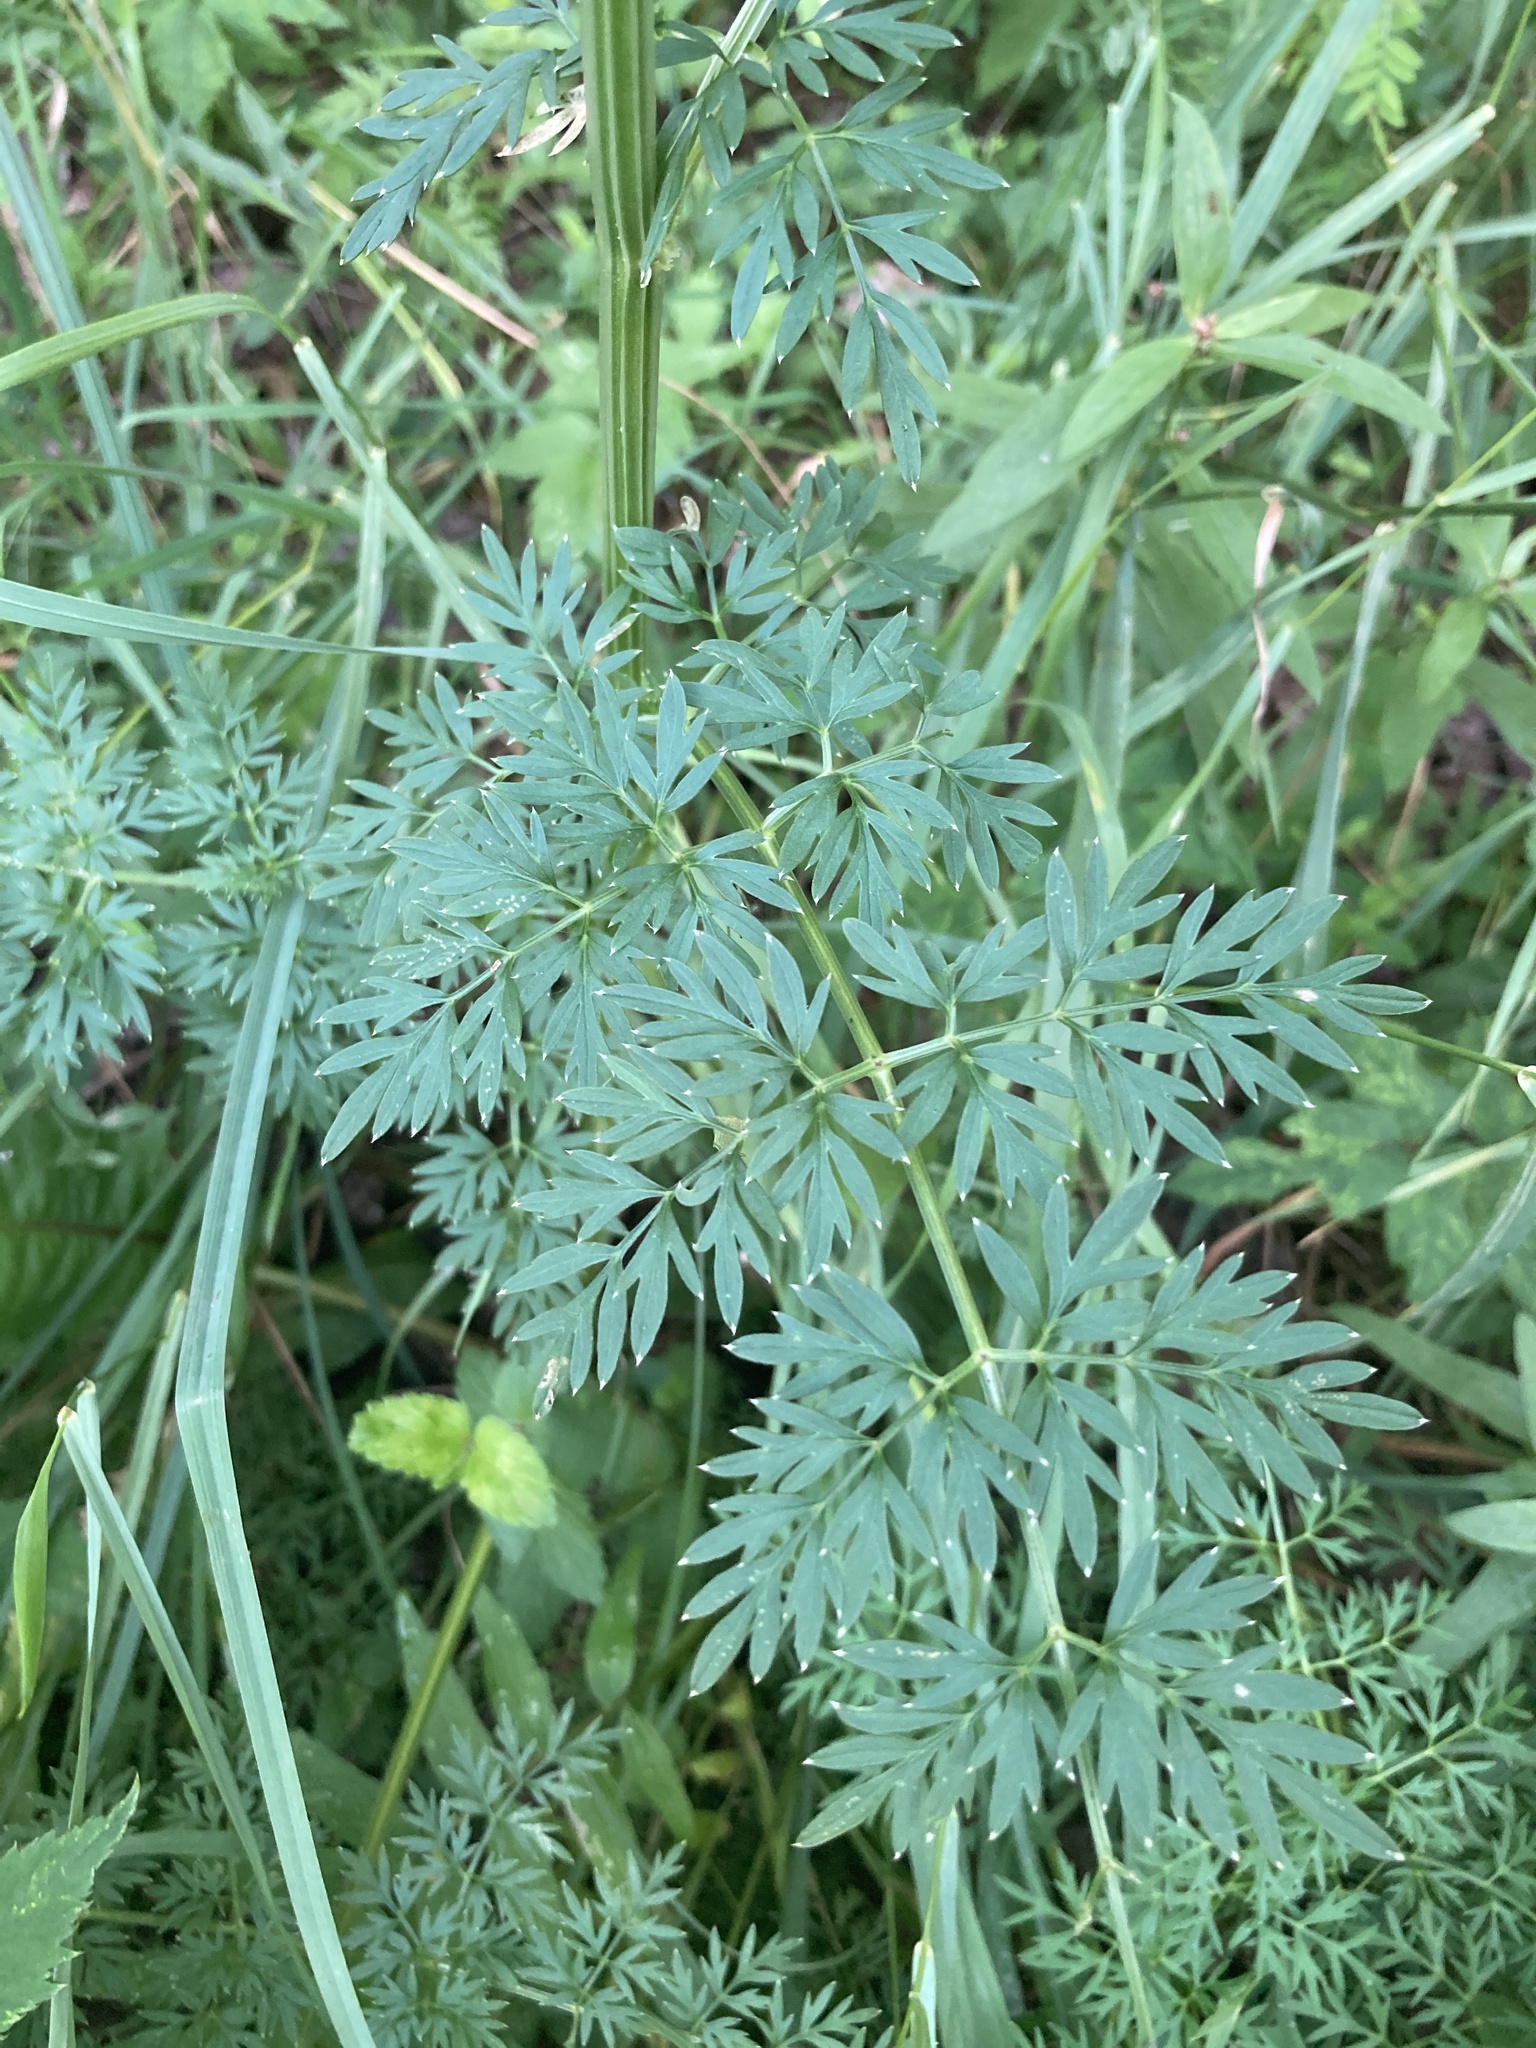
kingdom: Plantae
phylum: Tracheophyta
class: Magnoliopsida
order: Apiales
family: Apiaceae
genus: Selinum
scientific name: Selinum carvifolia
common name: Cambridge milk-parsley
